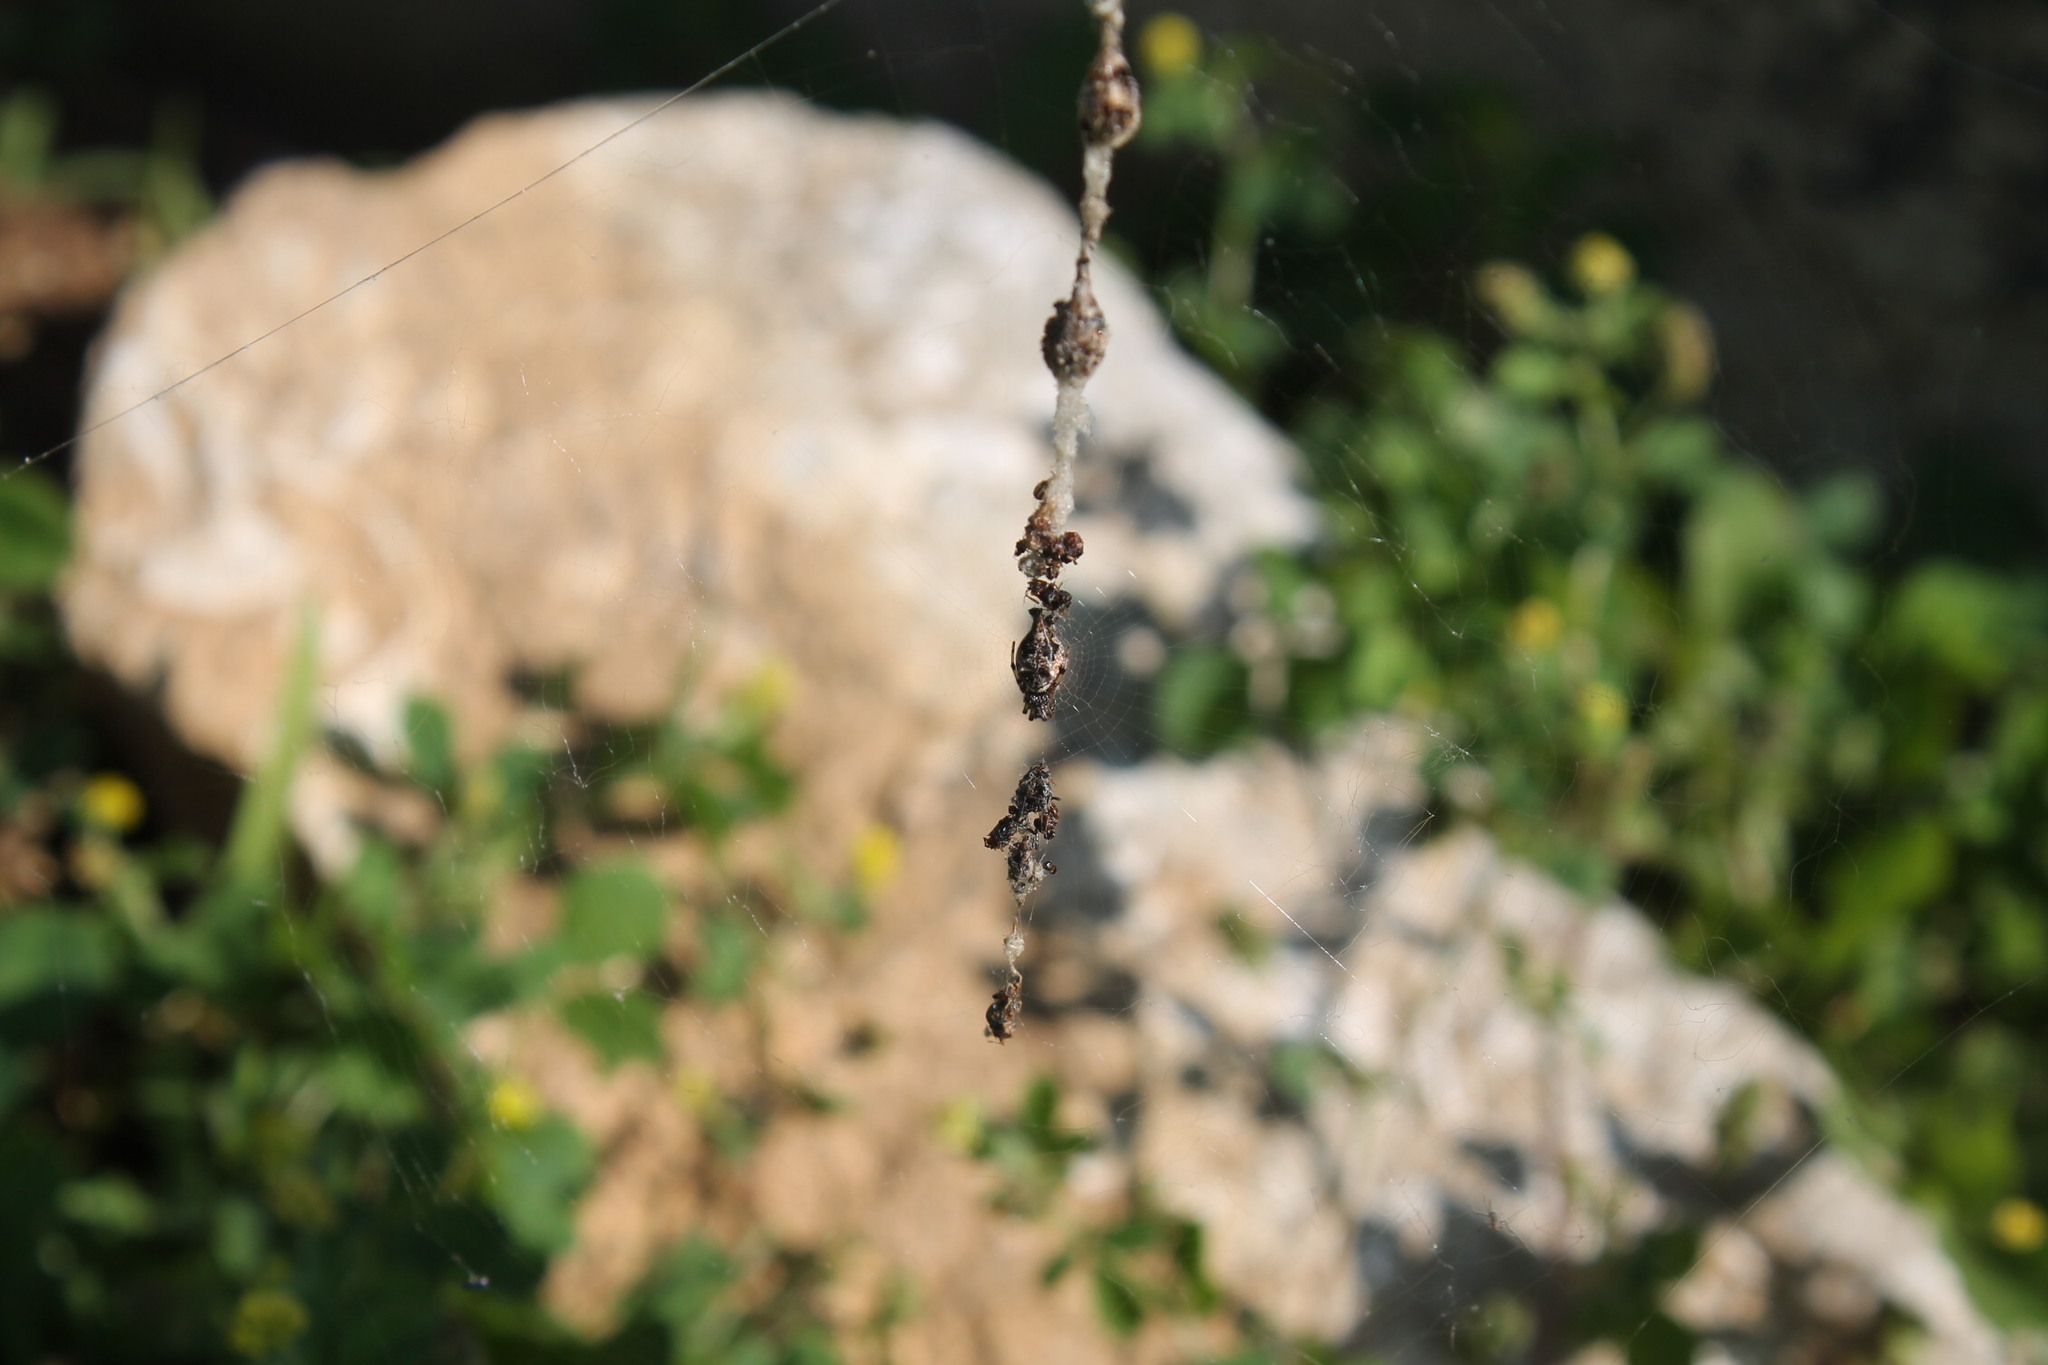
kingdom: Animalia
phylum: Arthropoda
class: Arachnida
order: Araneae
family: Araneidae
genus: Cyclosa
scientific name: Cyclosa turbinata
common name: Orb weavers
